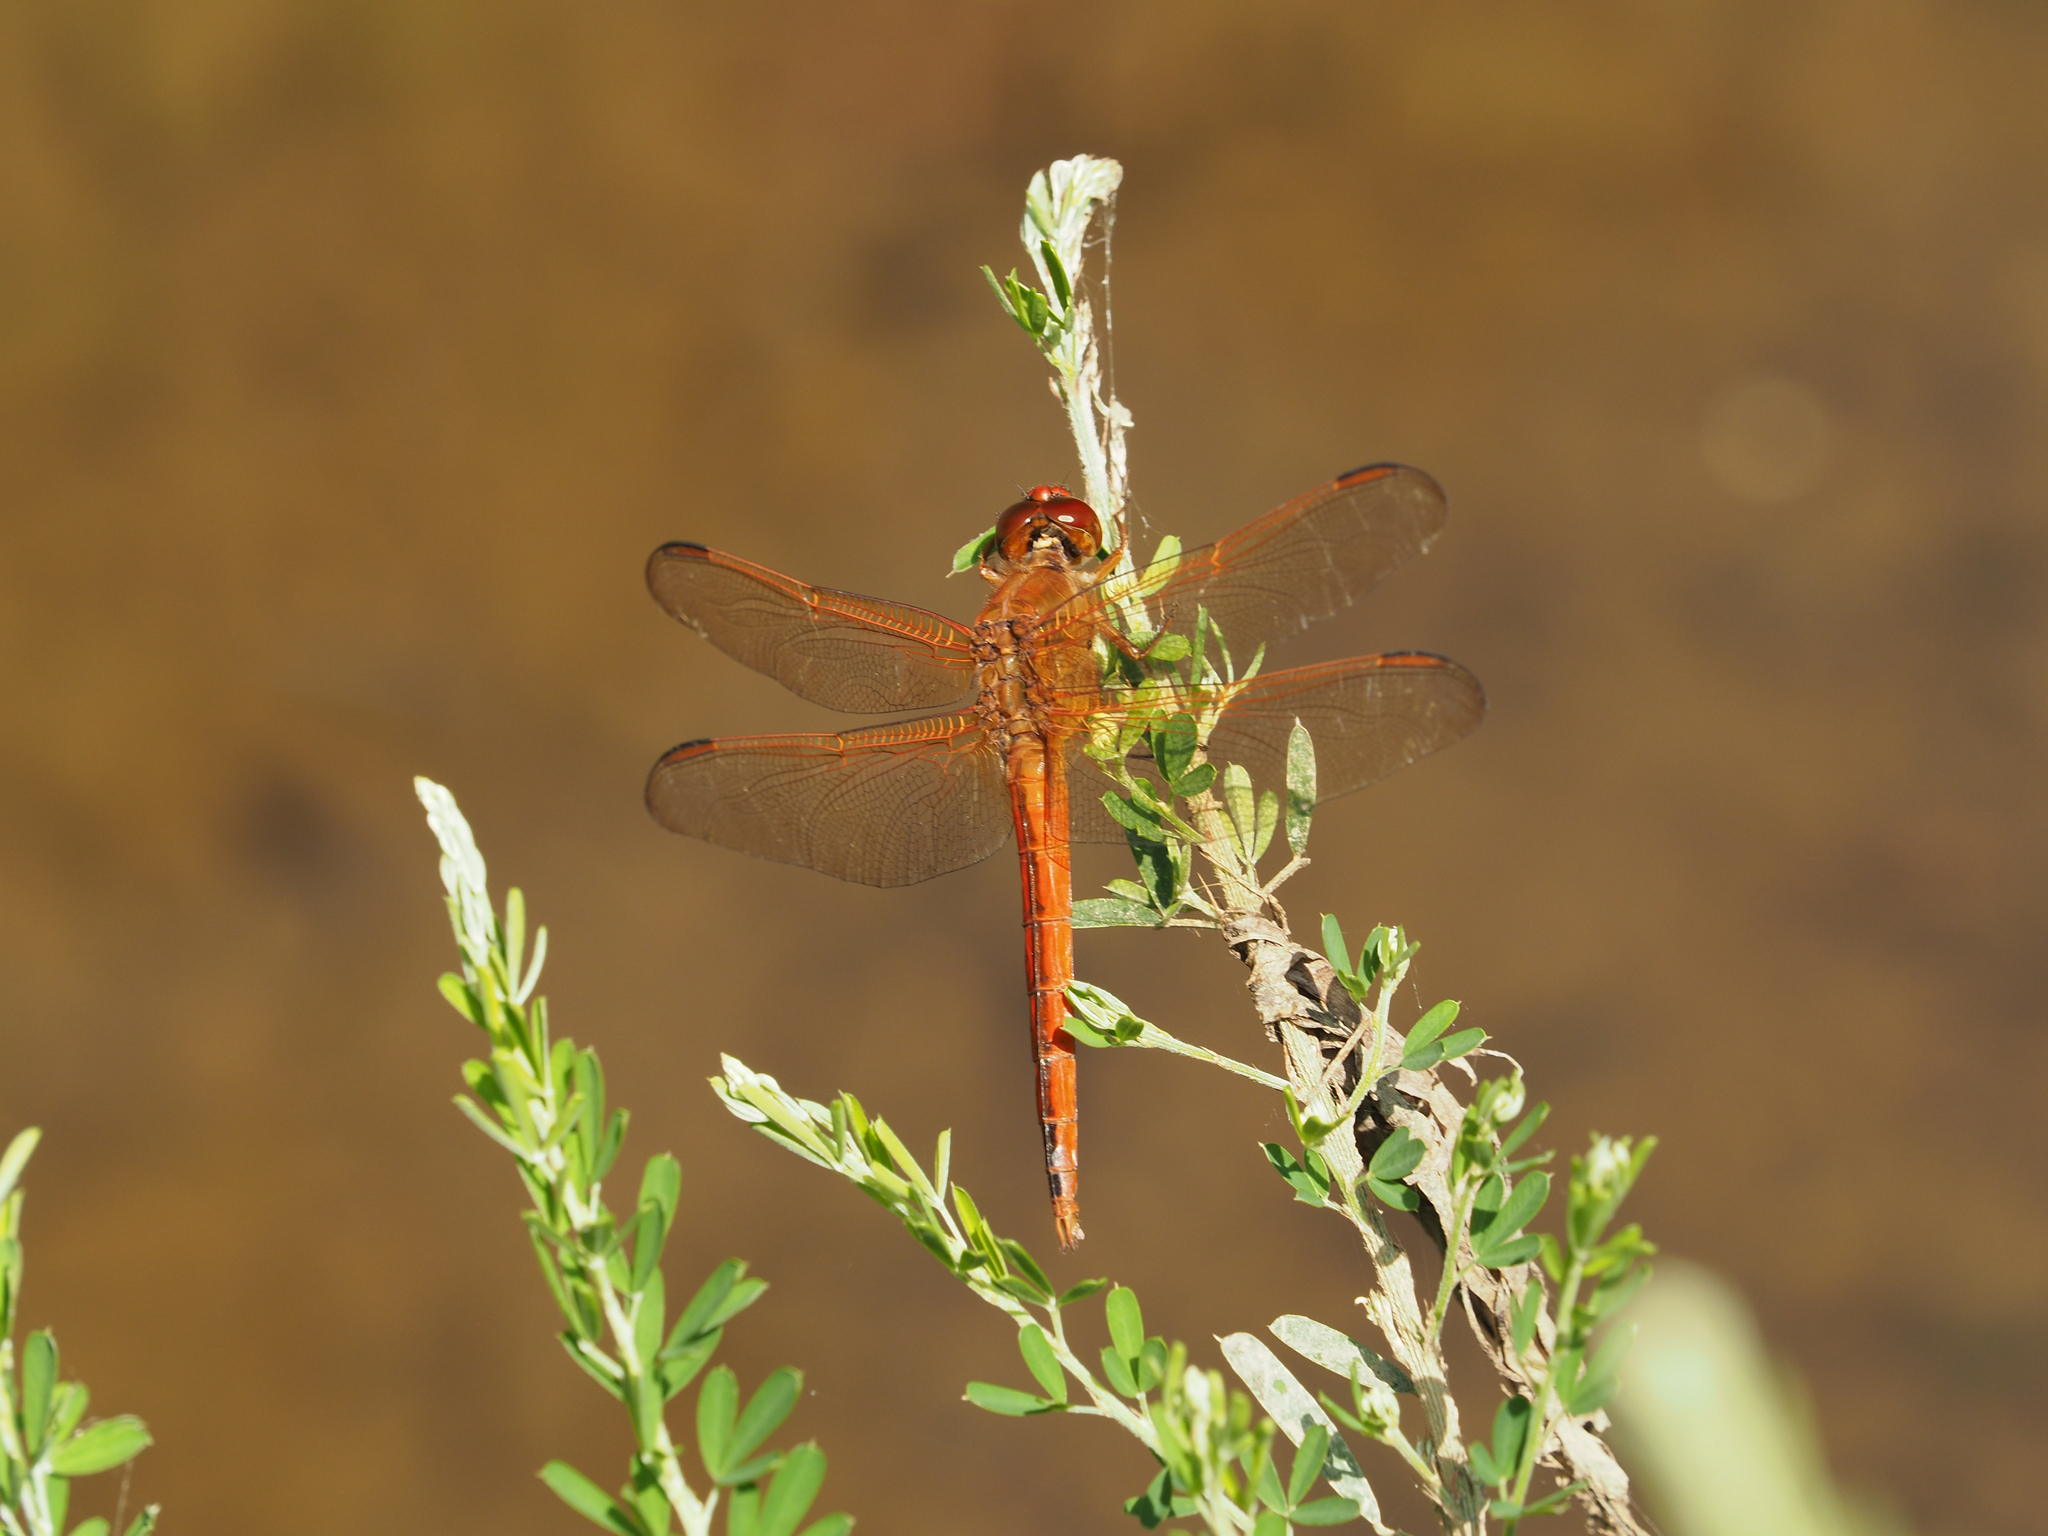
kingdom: Animalia
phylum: Arthropoda
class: Insecta
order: Odonata
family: Libellulidae
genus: Libellula
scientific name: Libellula needhami
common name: Needham's skimmer
